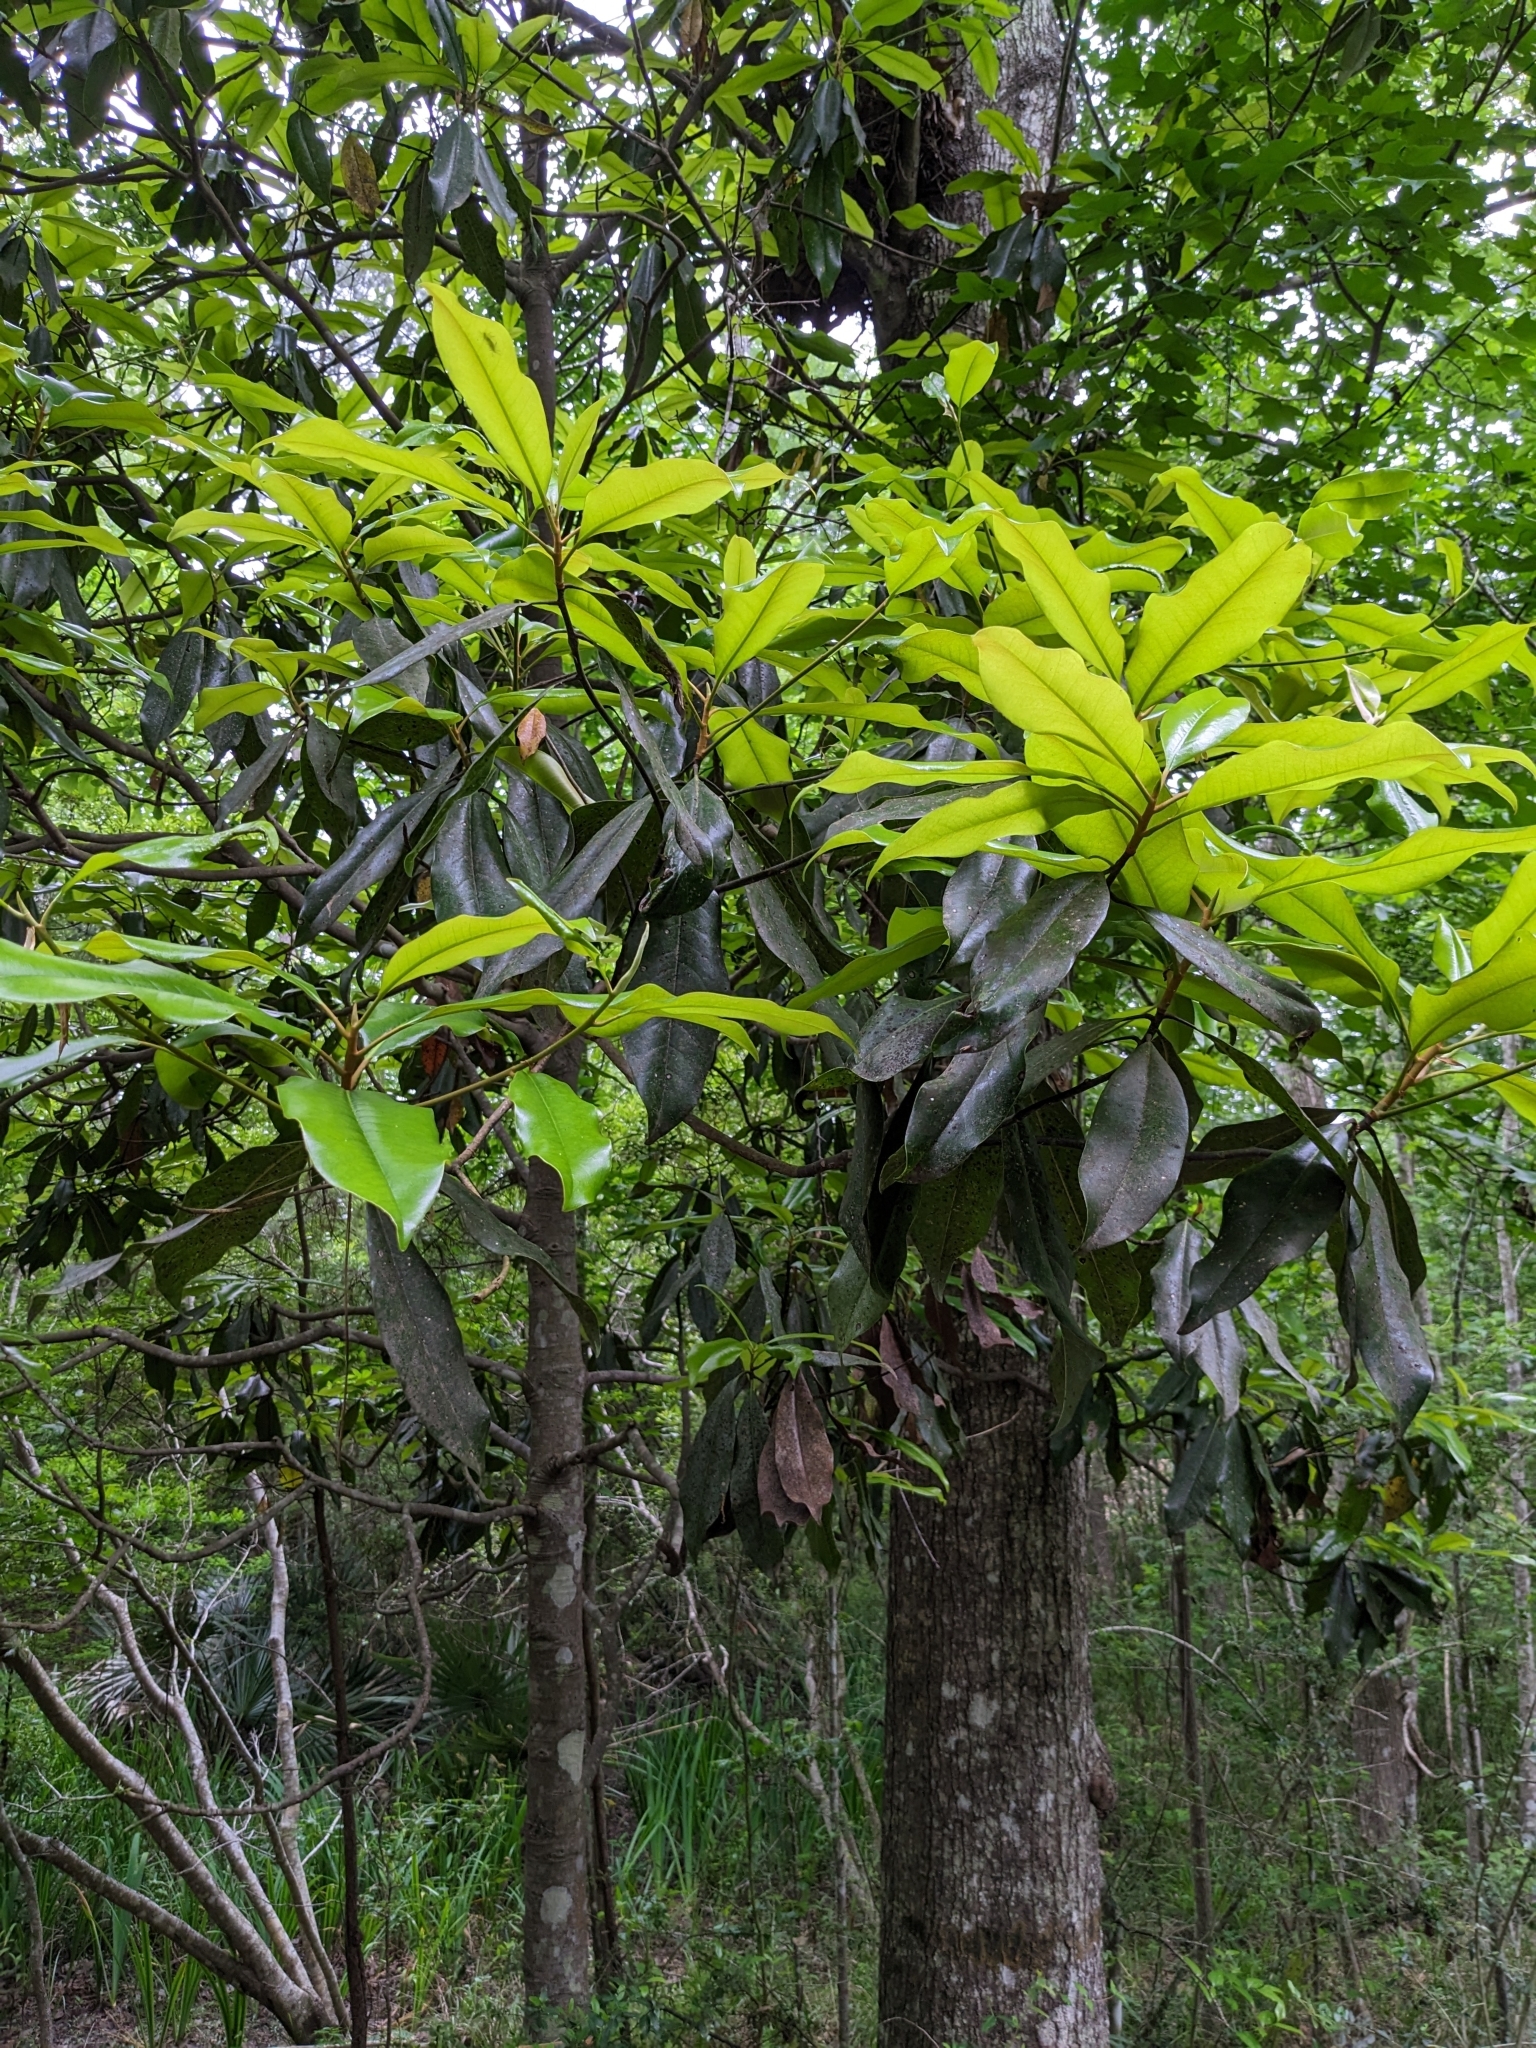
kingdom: Plantae
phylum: Tracheophyta
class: Magnoliopsida
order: Magnoliales
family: Magnoliaceae
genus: Magnolia
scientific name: Magnolia grandiflora
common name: Southern magnolia
